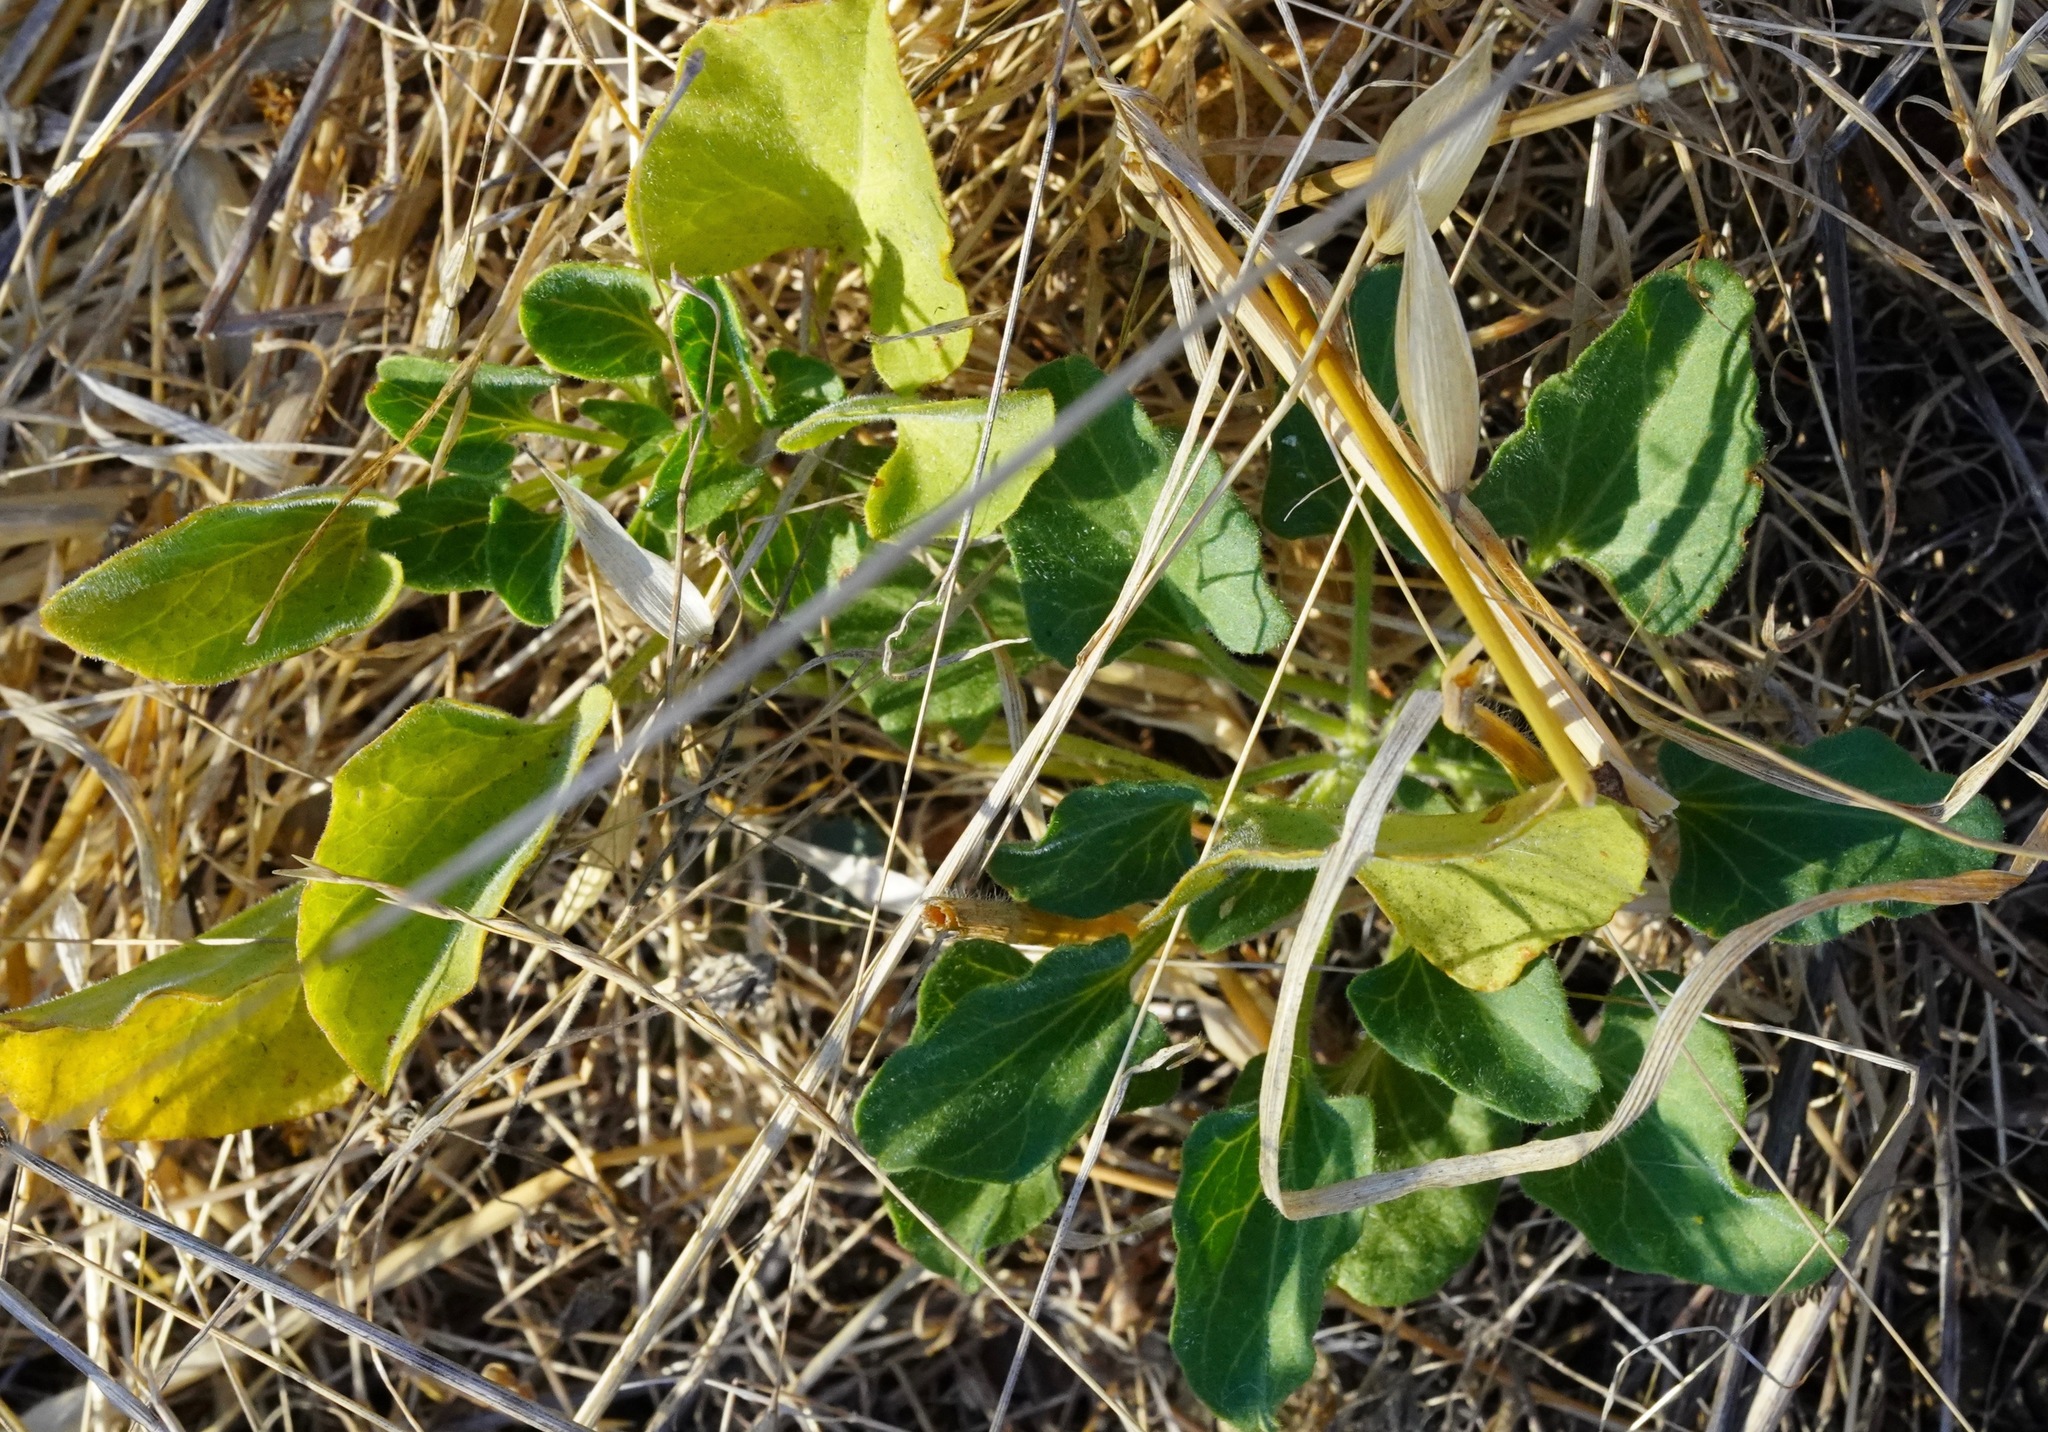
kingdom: Plantae
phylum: Tracheophyta
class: Magnoliopsida
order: Solanales
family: Convolvulaceae
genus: Calystegia
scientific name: Calystegia subacaulis
